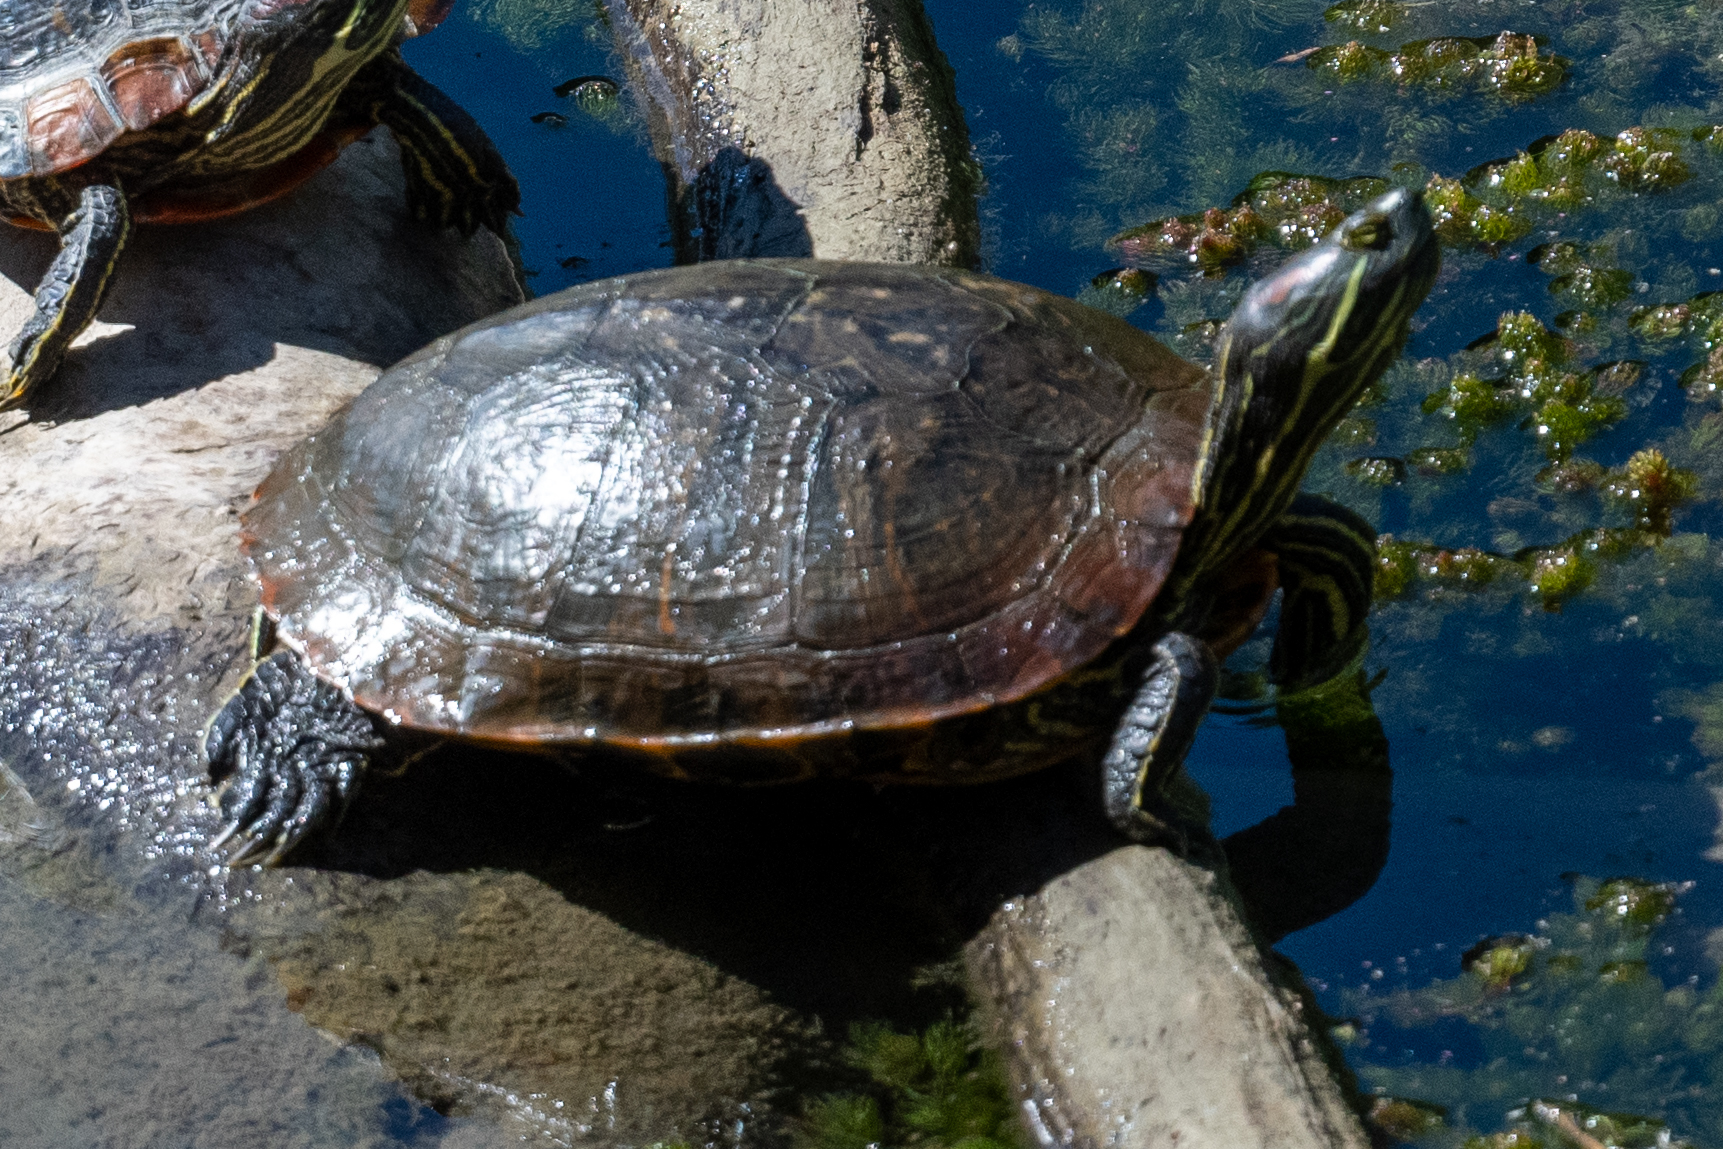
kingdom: Animalia
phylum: Chordata
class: Testudines
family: Emydidae
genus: Trachemys
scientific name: Trachemys scripta
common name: Slider
